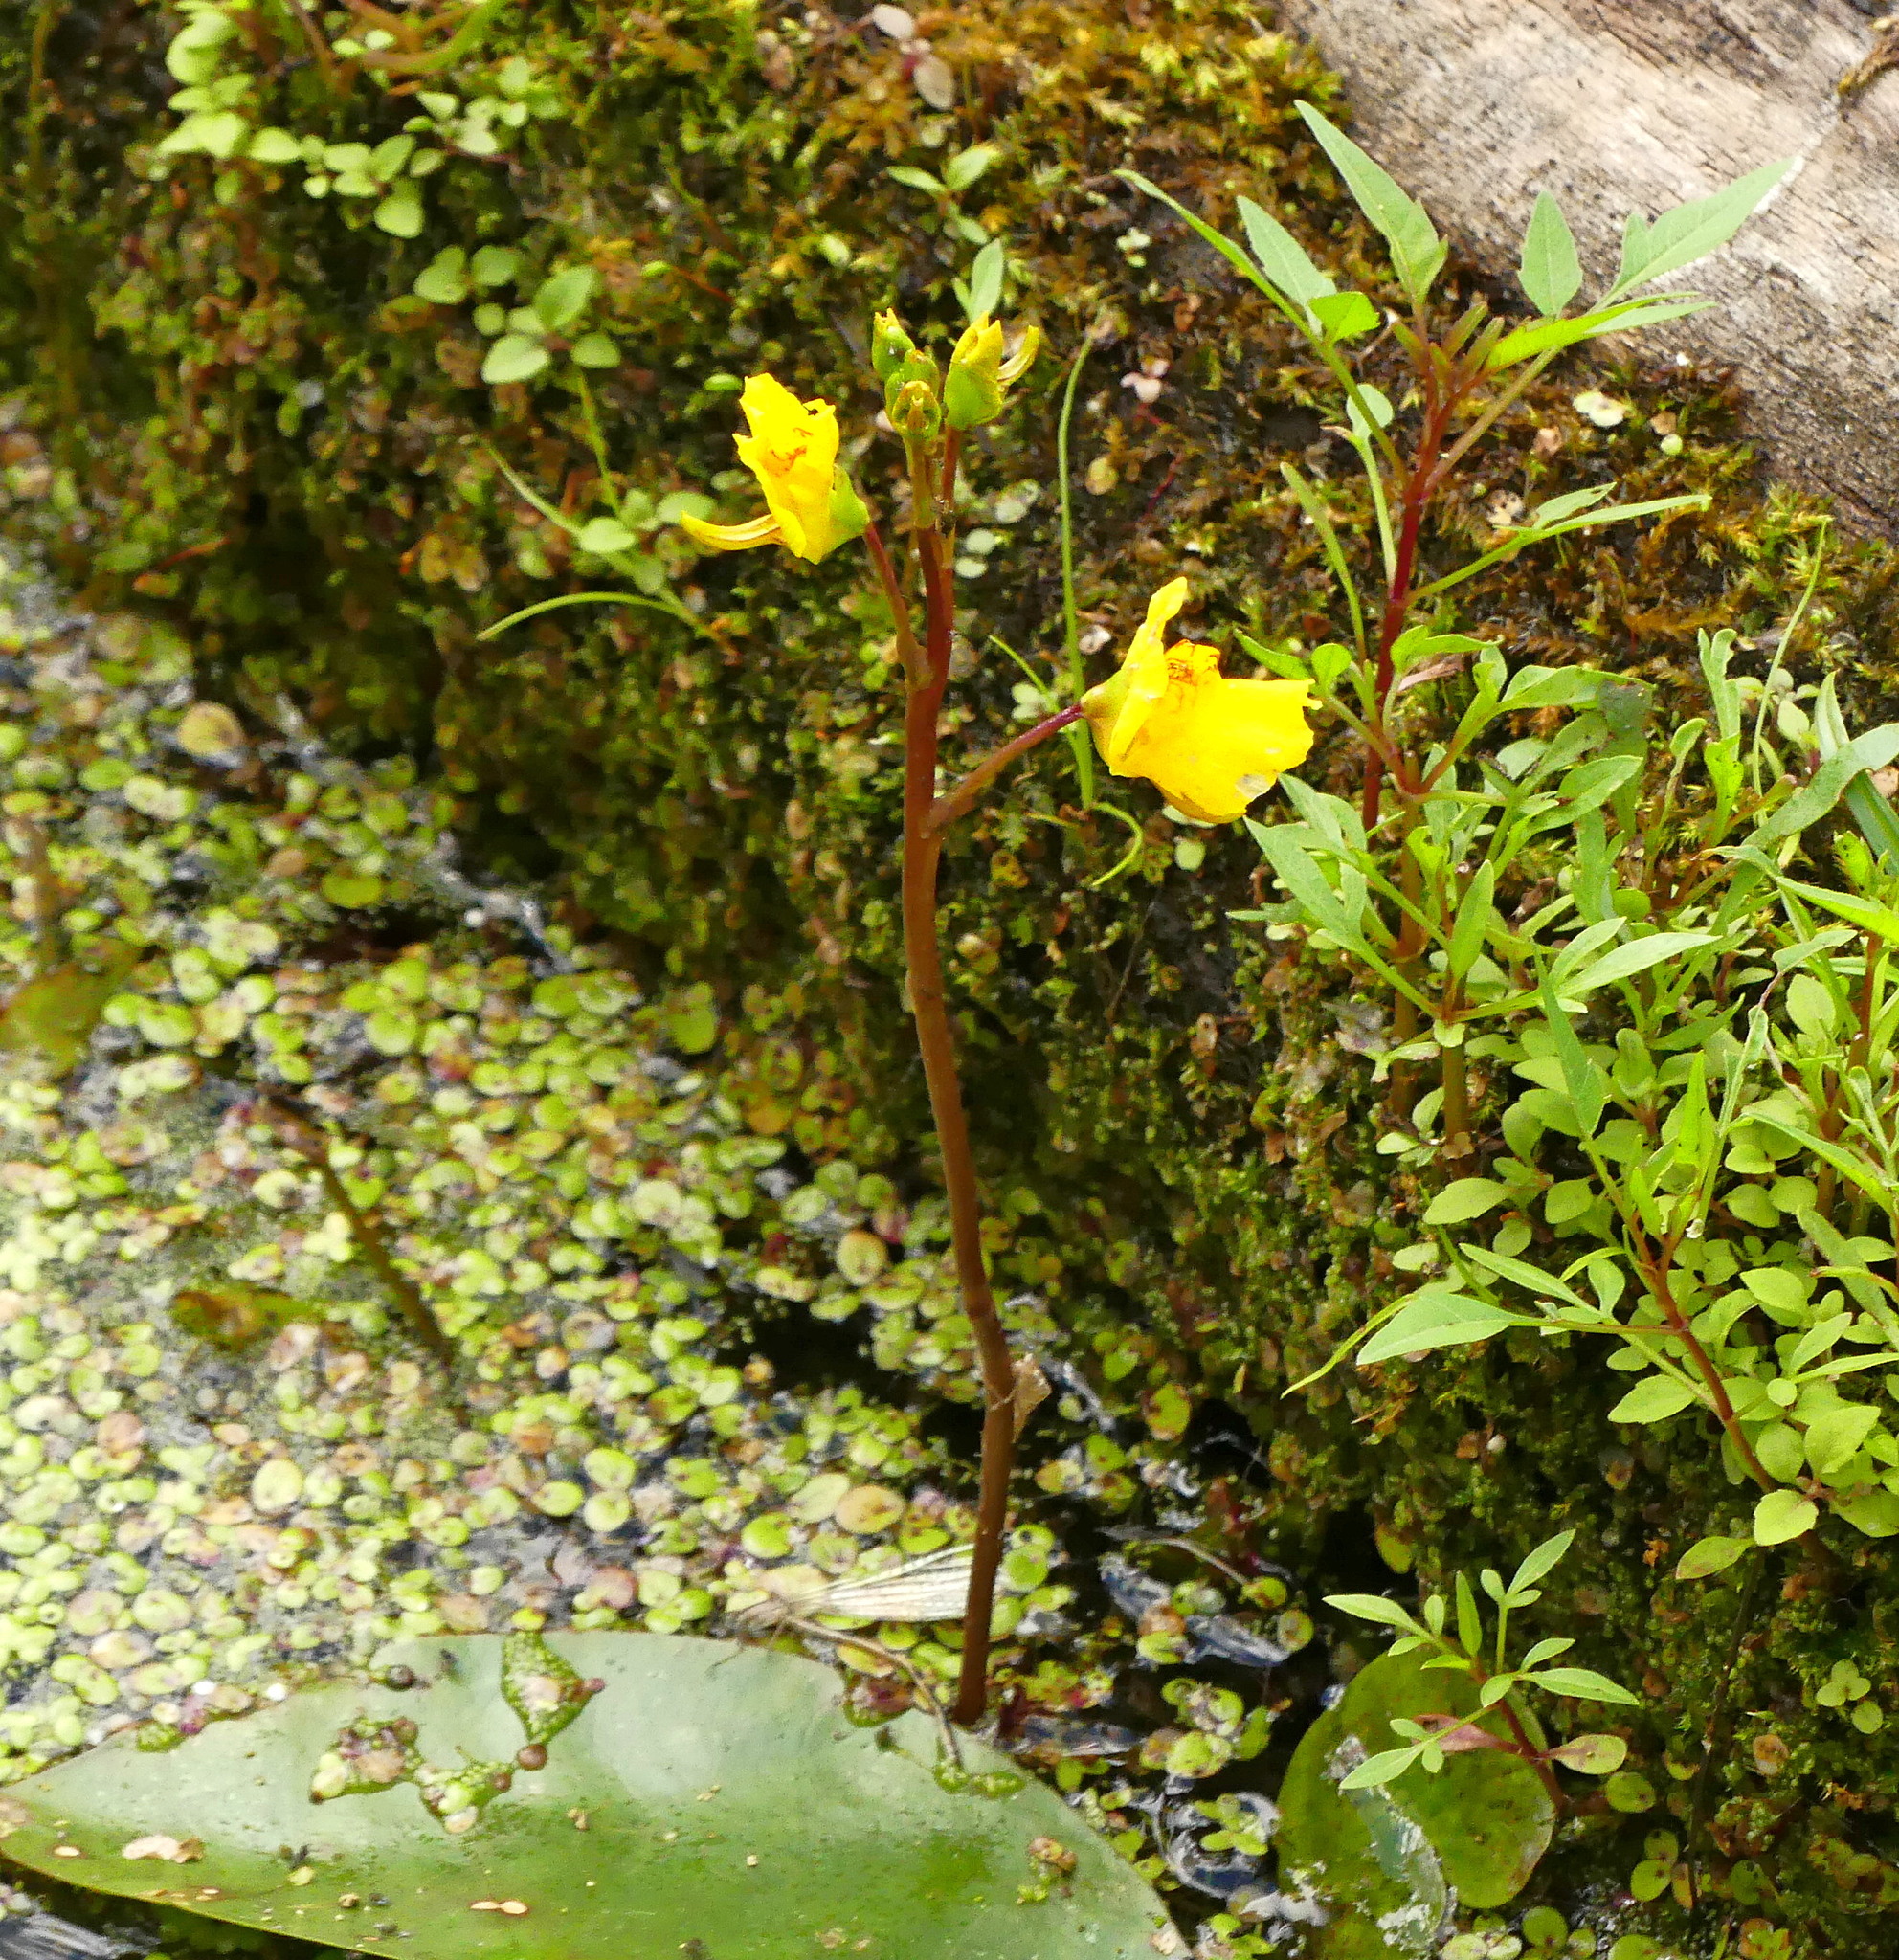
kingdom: Plantae
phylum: Tracheophyta
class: Magnoliopsida
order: Lamiales
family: Lentibulariaceae
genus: Utricularia
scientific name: Utricularia macrorhiza
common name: Common bladderwort
